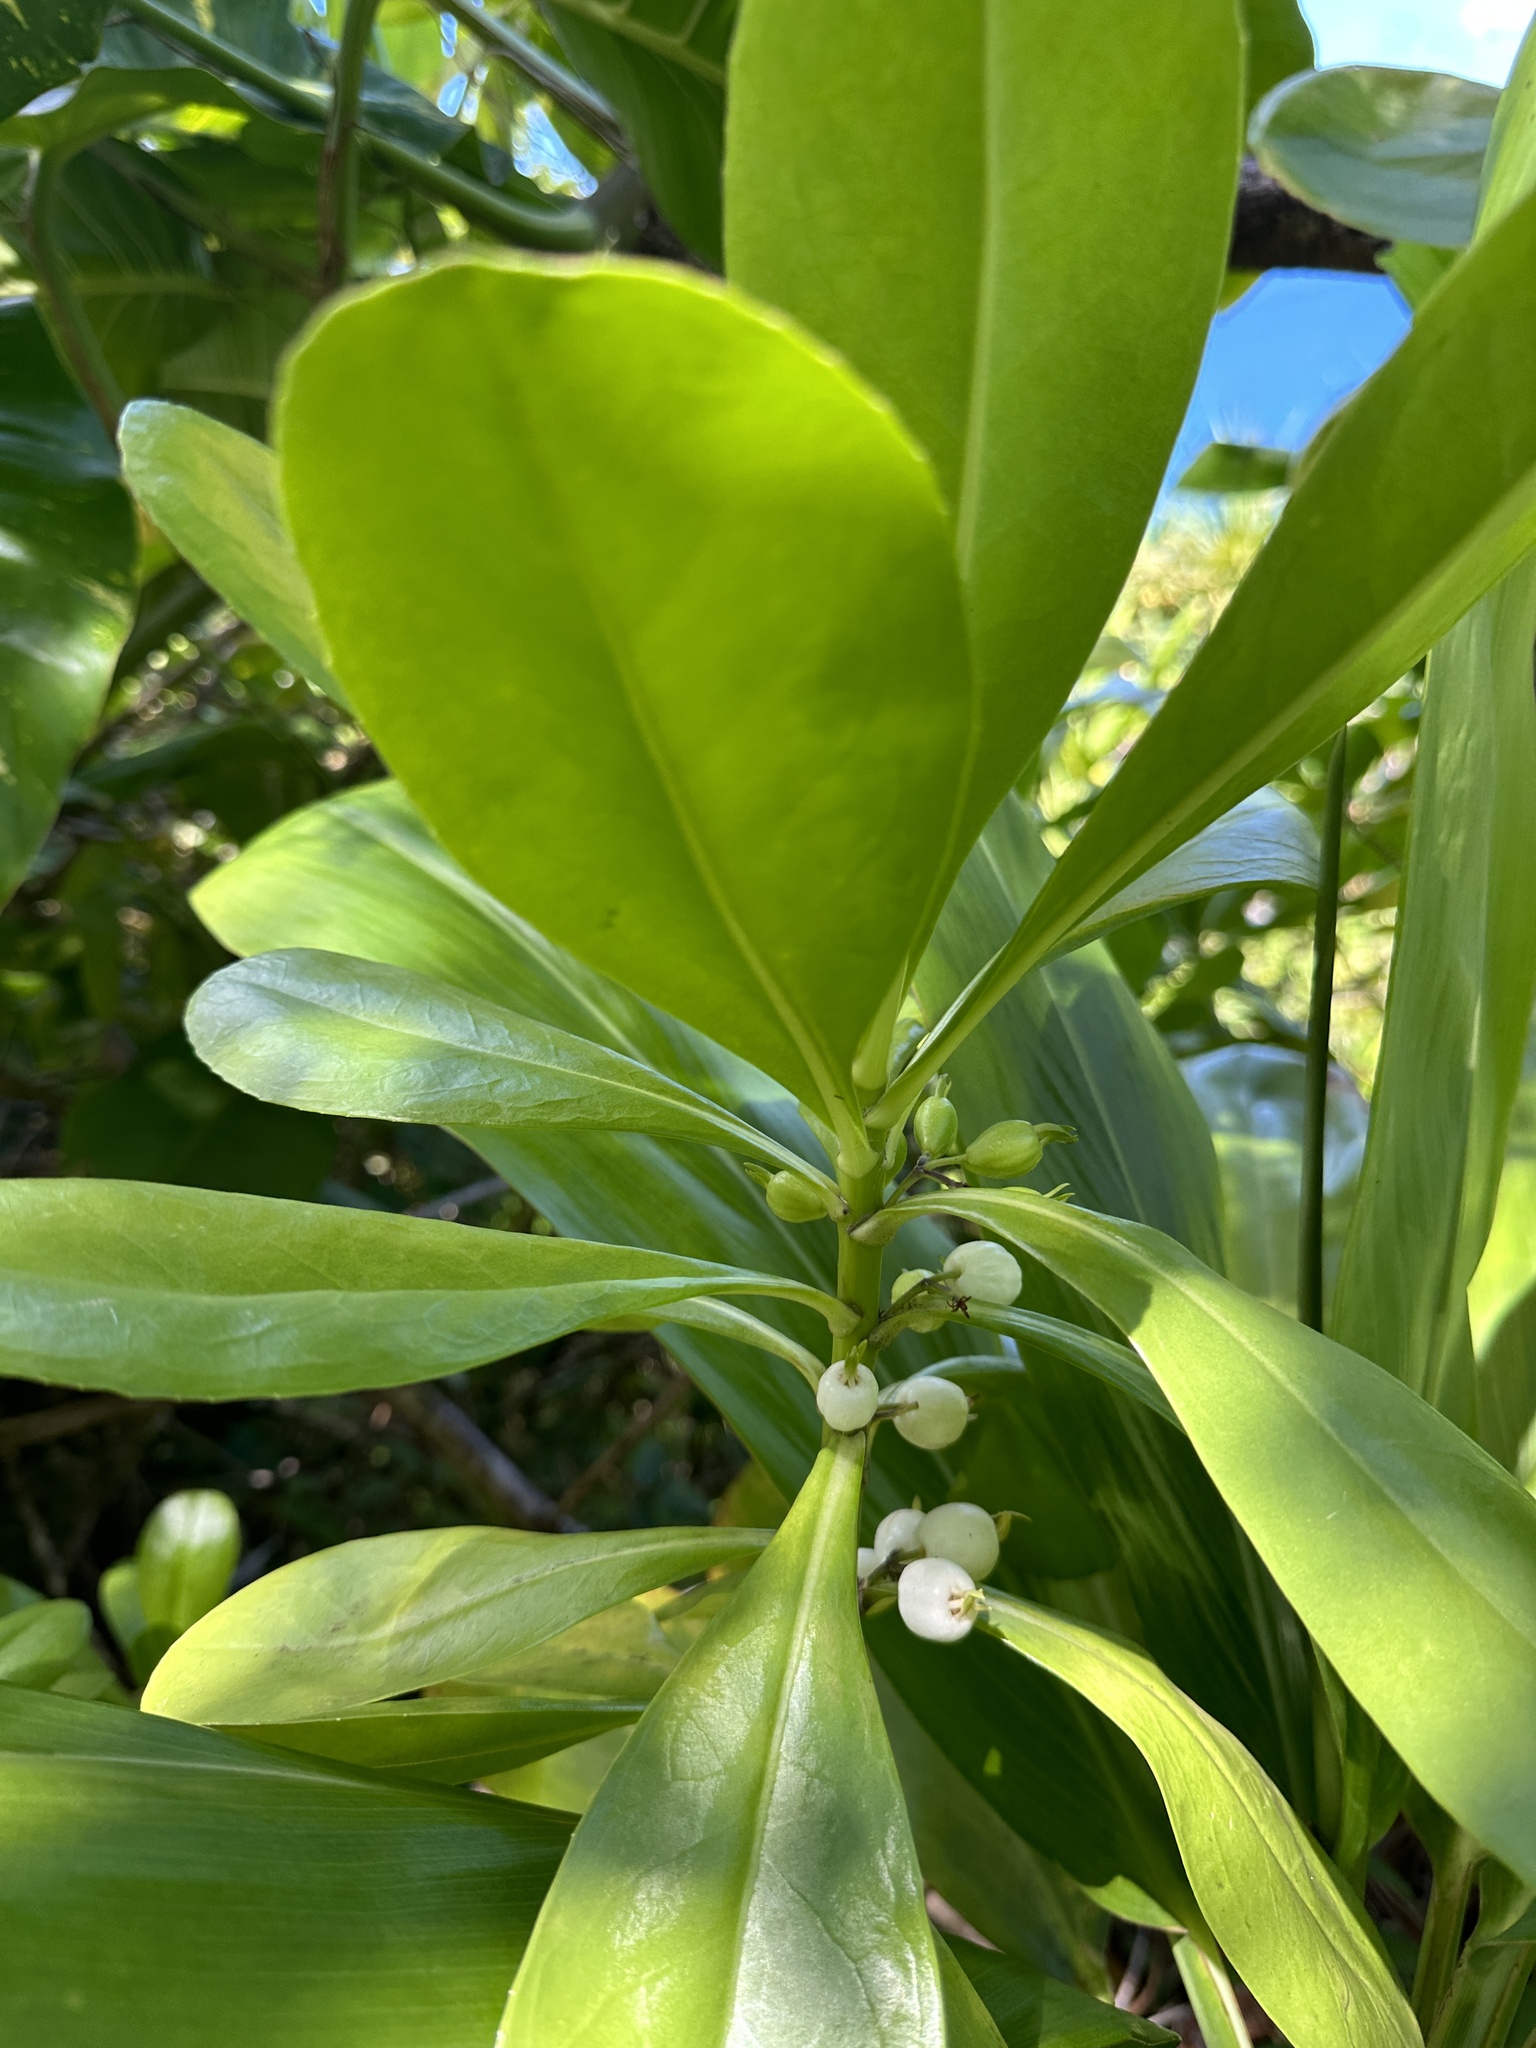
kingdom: Plantae
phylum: Tracheophyta
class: Magnoliopsida
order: Asterales
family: Goodeniaceae
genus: Scaevola
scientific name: Scaevola taccada
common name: Sea lettucetree
